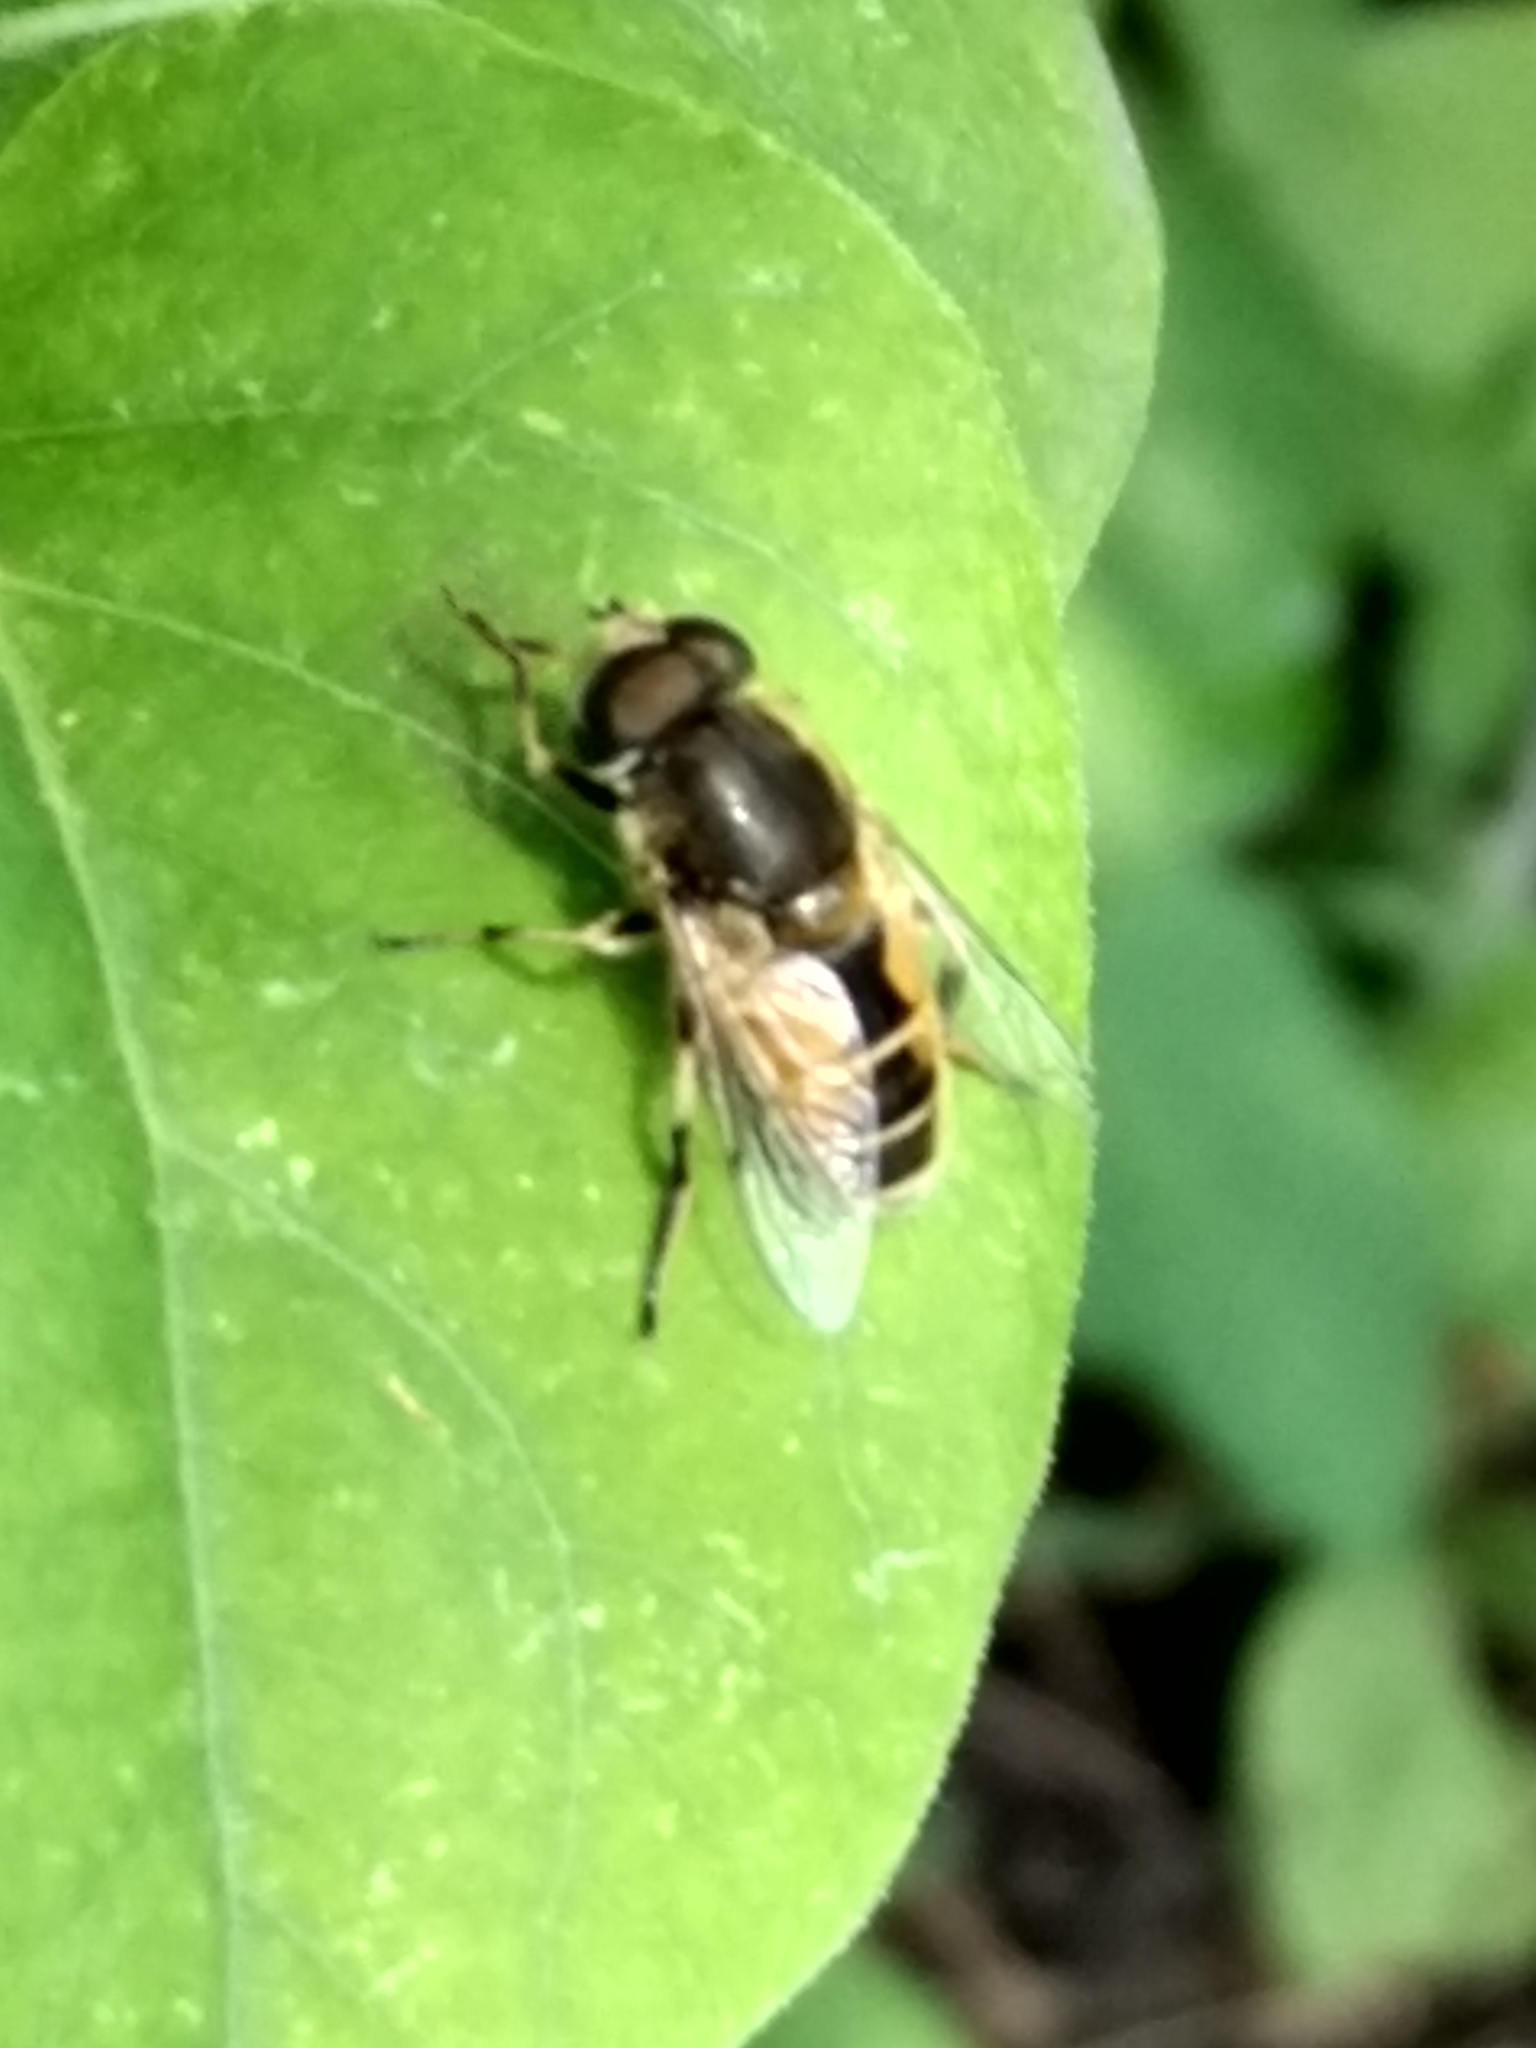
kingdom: Animalia
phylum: Arthropoda
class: Insecta
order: Diptera
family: Syrphidae
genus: Eristalis
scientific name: Eristalis arbustorum
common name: Hover fly
